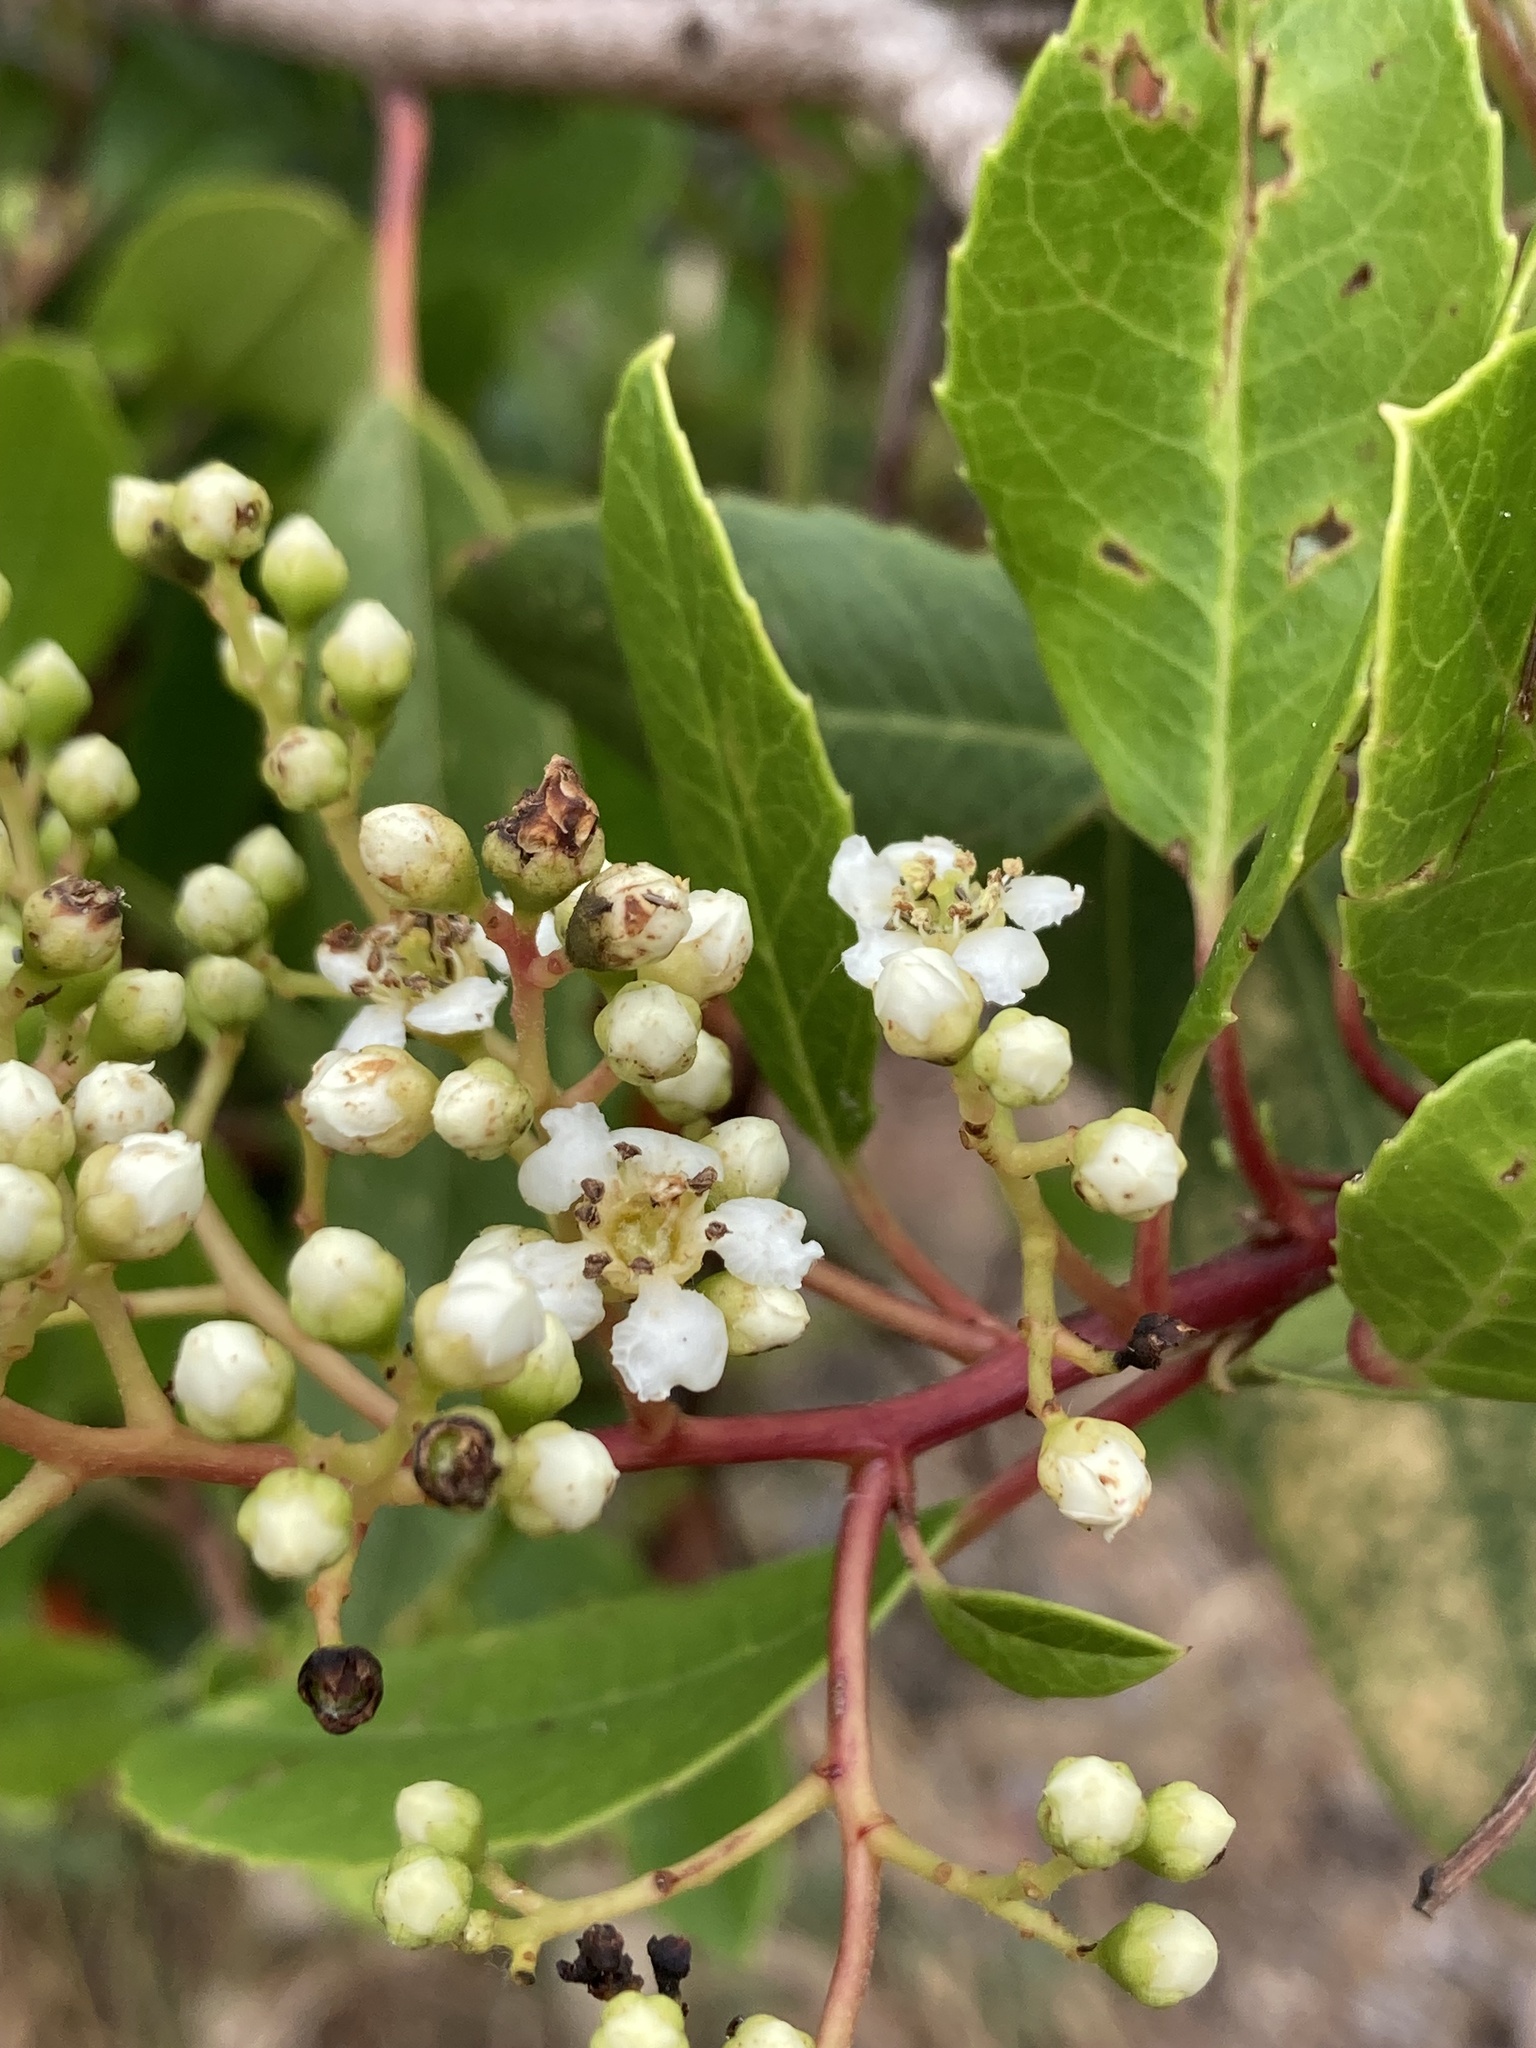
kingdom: Plantae
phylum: Tracheophyta
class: Magnoliopsida
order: Rosales
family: Rosaceae
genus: Heteromeles
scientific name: Heteromeles arbutifolia
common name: California-holly
